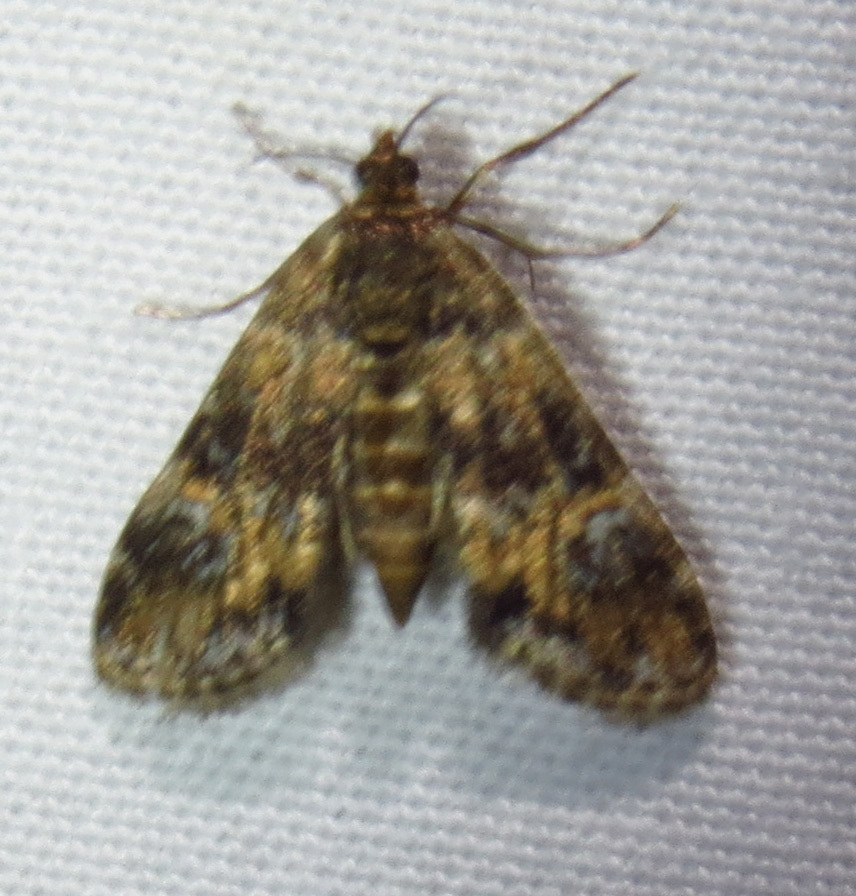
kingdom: Animalia
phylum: Arthropoda
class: Insecta
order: Lepidoptera
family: Crambidae
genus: Elophila
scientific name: Elophila obliteralis
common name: Waterlily leafcutter moth
